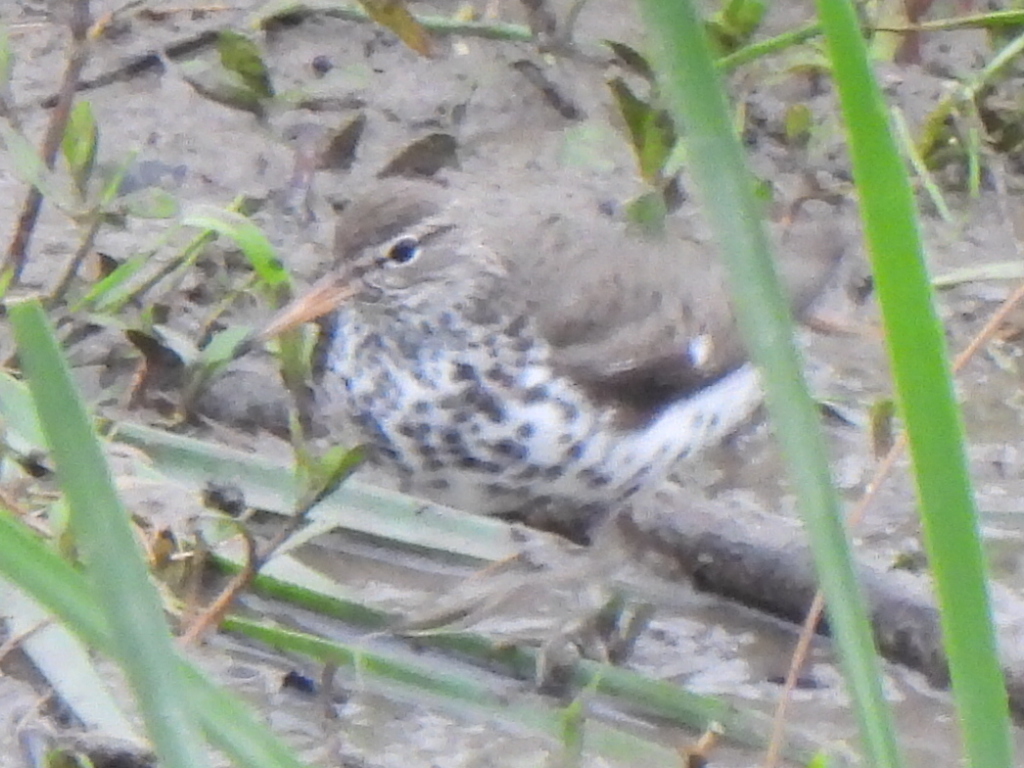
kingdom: Animalia
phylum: Chordata
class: Aves
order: Charadriiformes
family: Scolopacidae
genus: Actitis
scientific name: Actitis macularius
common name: Spotted sandpiper
